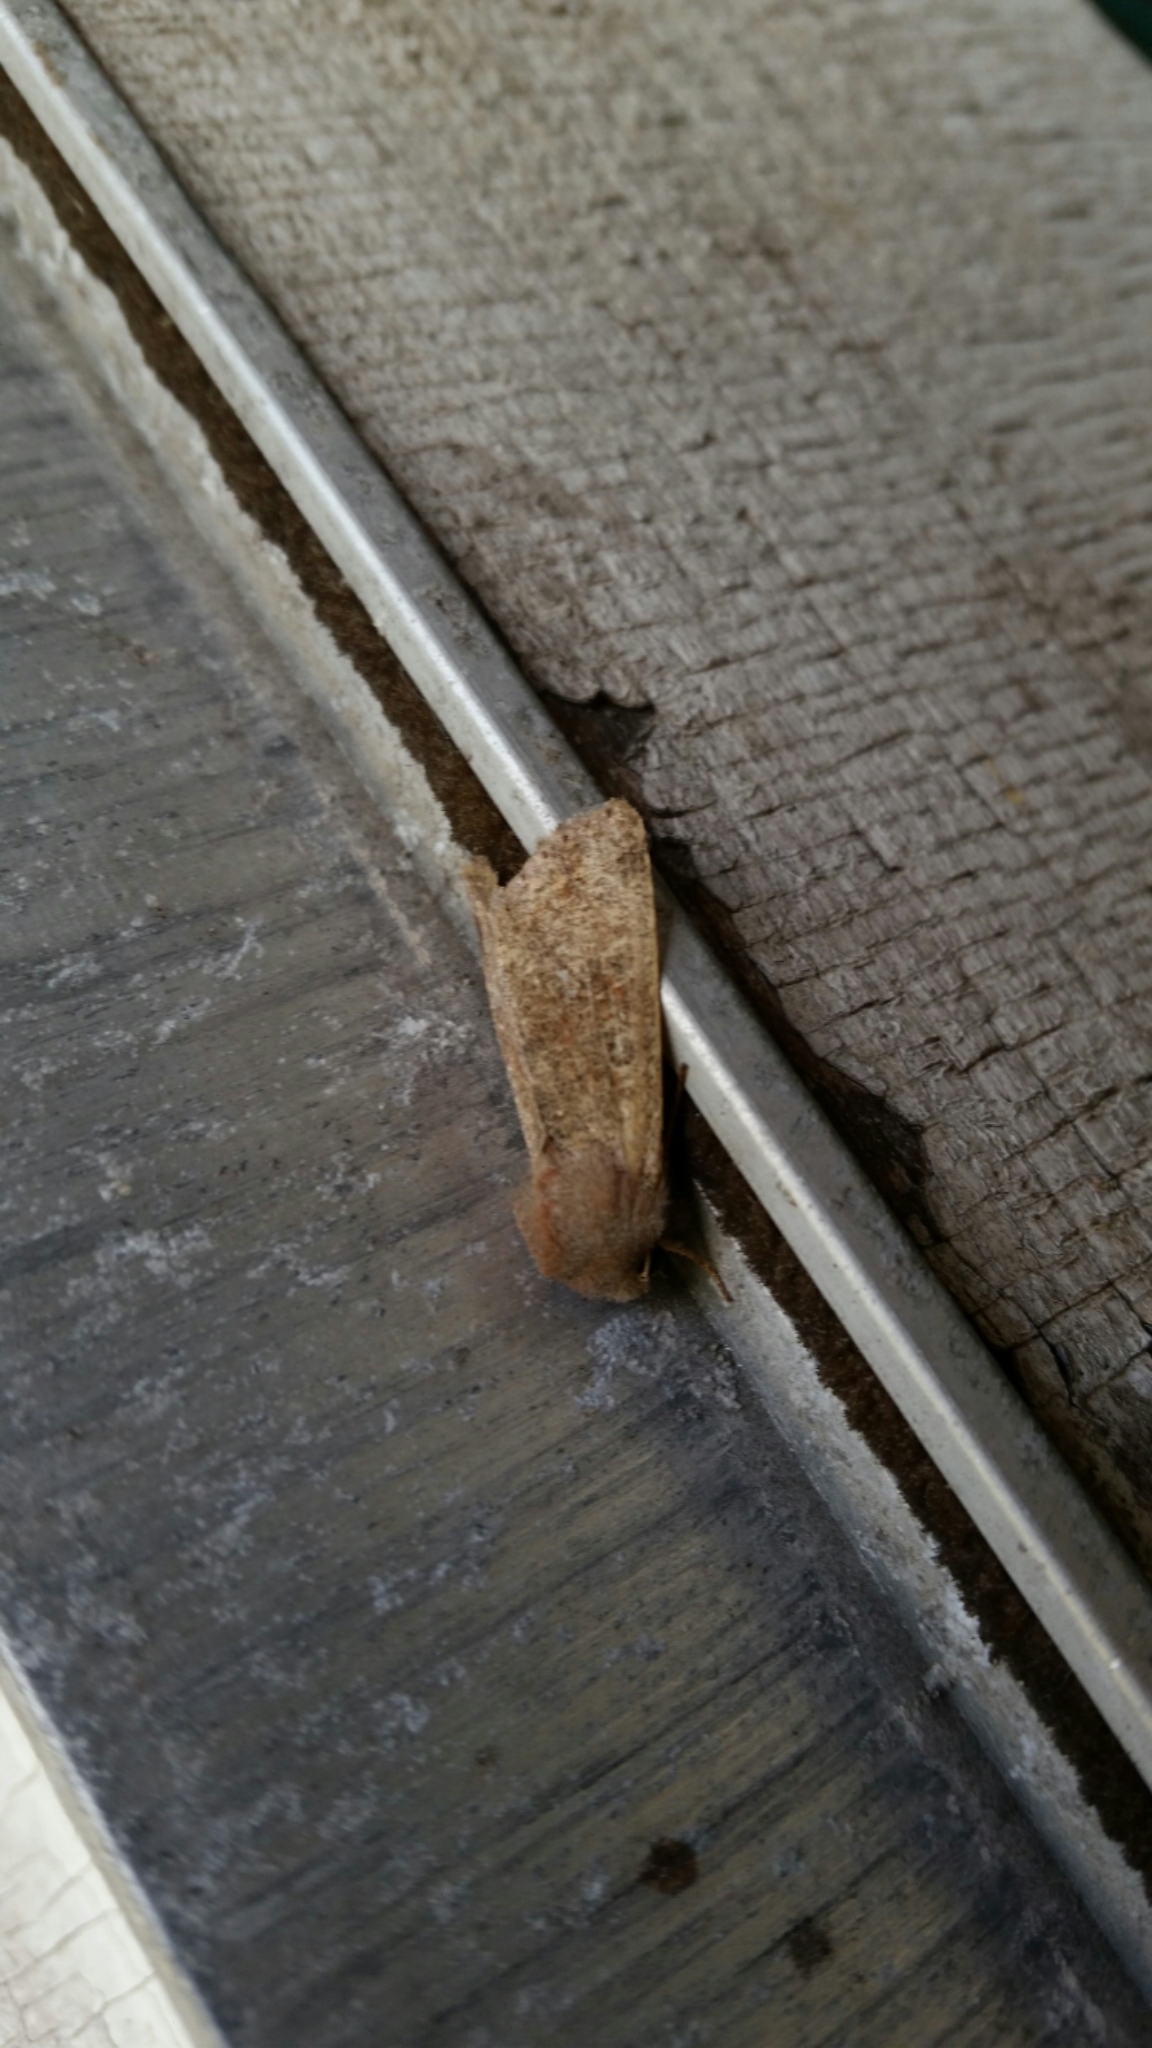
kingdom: Animalia
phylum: Arthropoda
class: Insecta
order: Lepidoptera
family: Noctuidae
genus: Orthosia
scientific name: Orthosia rubescens
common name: Ruby quaker
